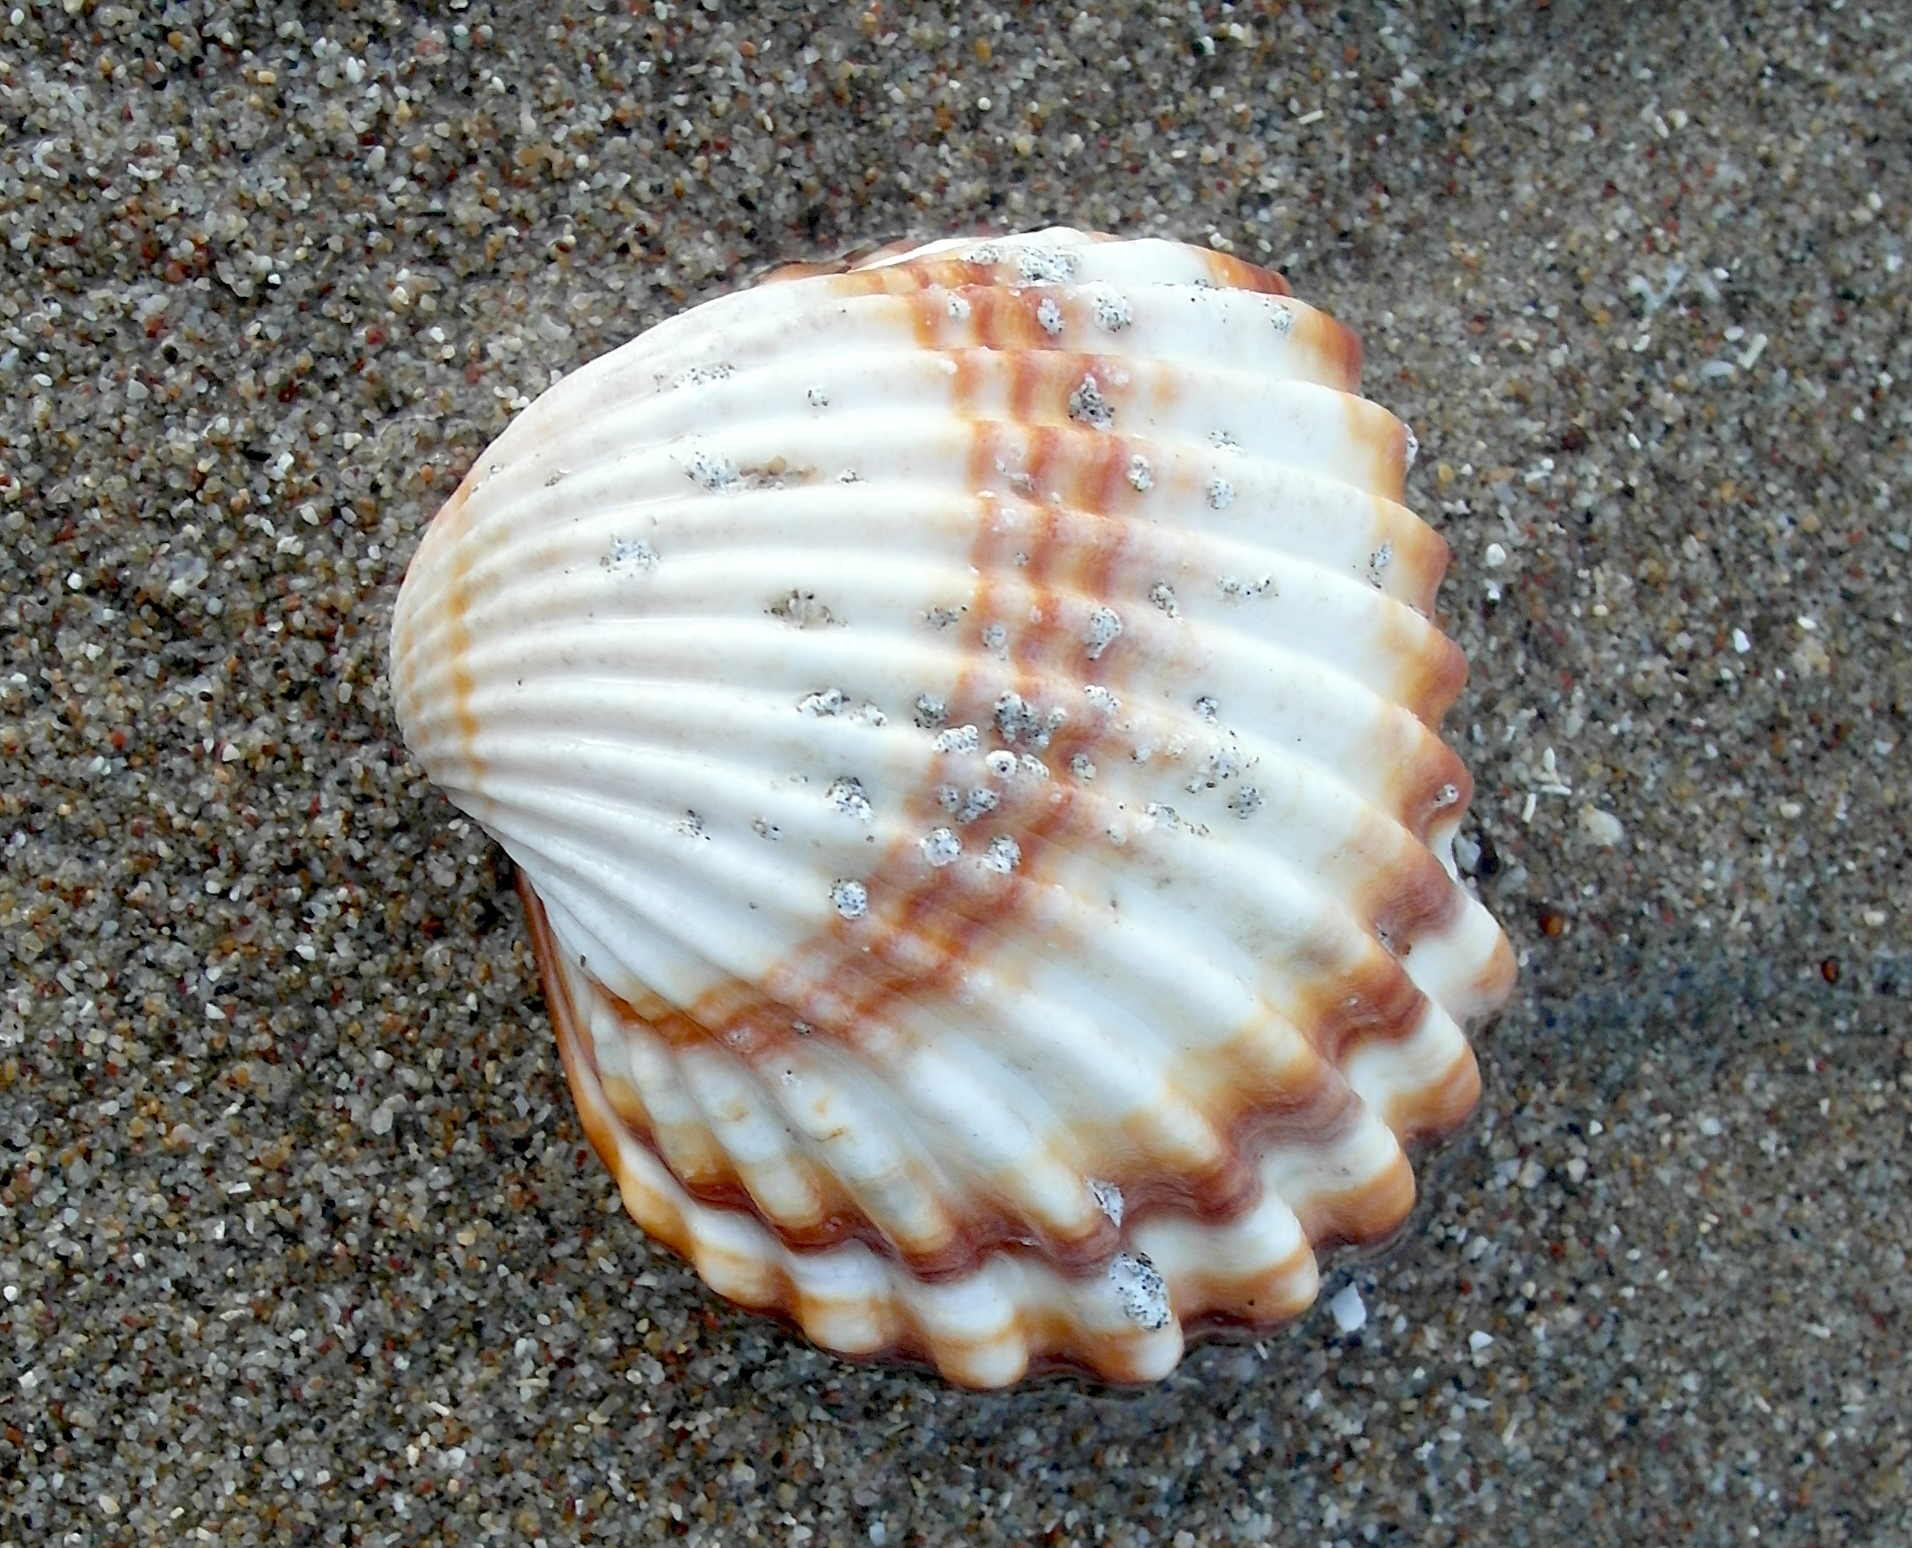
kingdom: Animalia
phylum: Mollusca
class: Bivalvia
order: Cardiida
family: Cardiidae
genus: Acanthocardia
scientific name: Acanthocardia tuberculata
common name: Rough cockle
